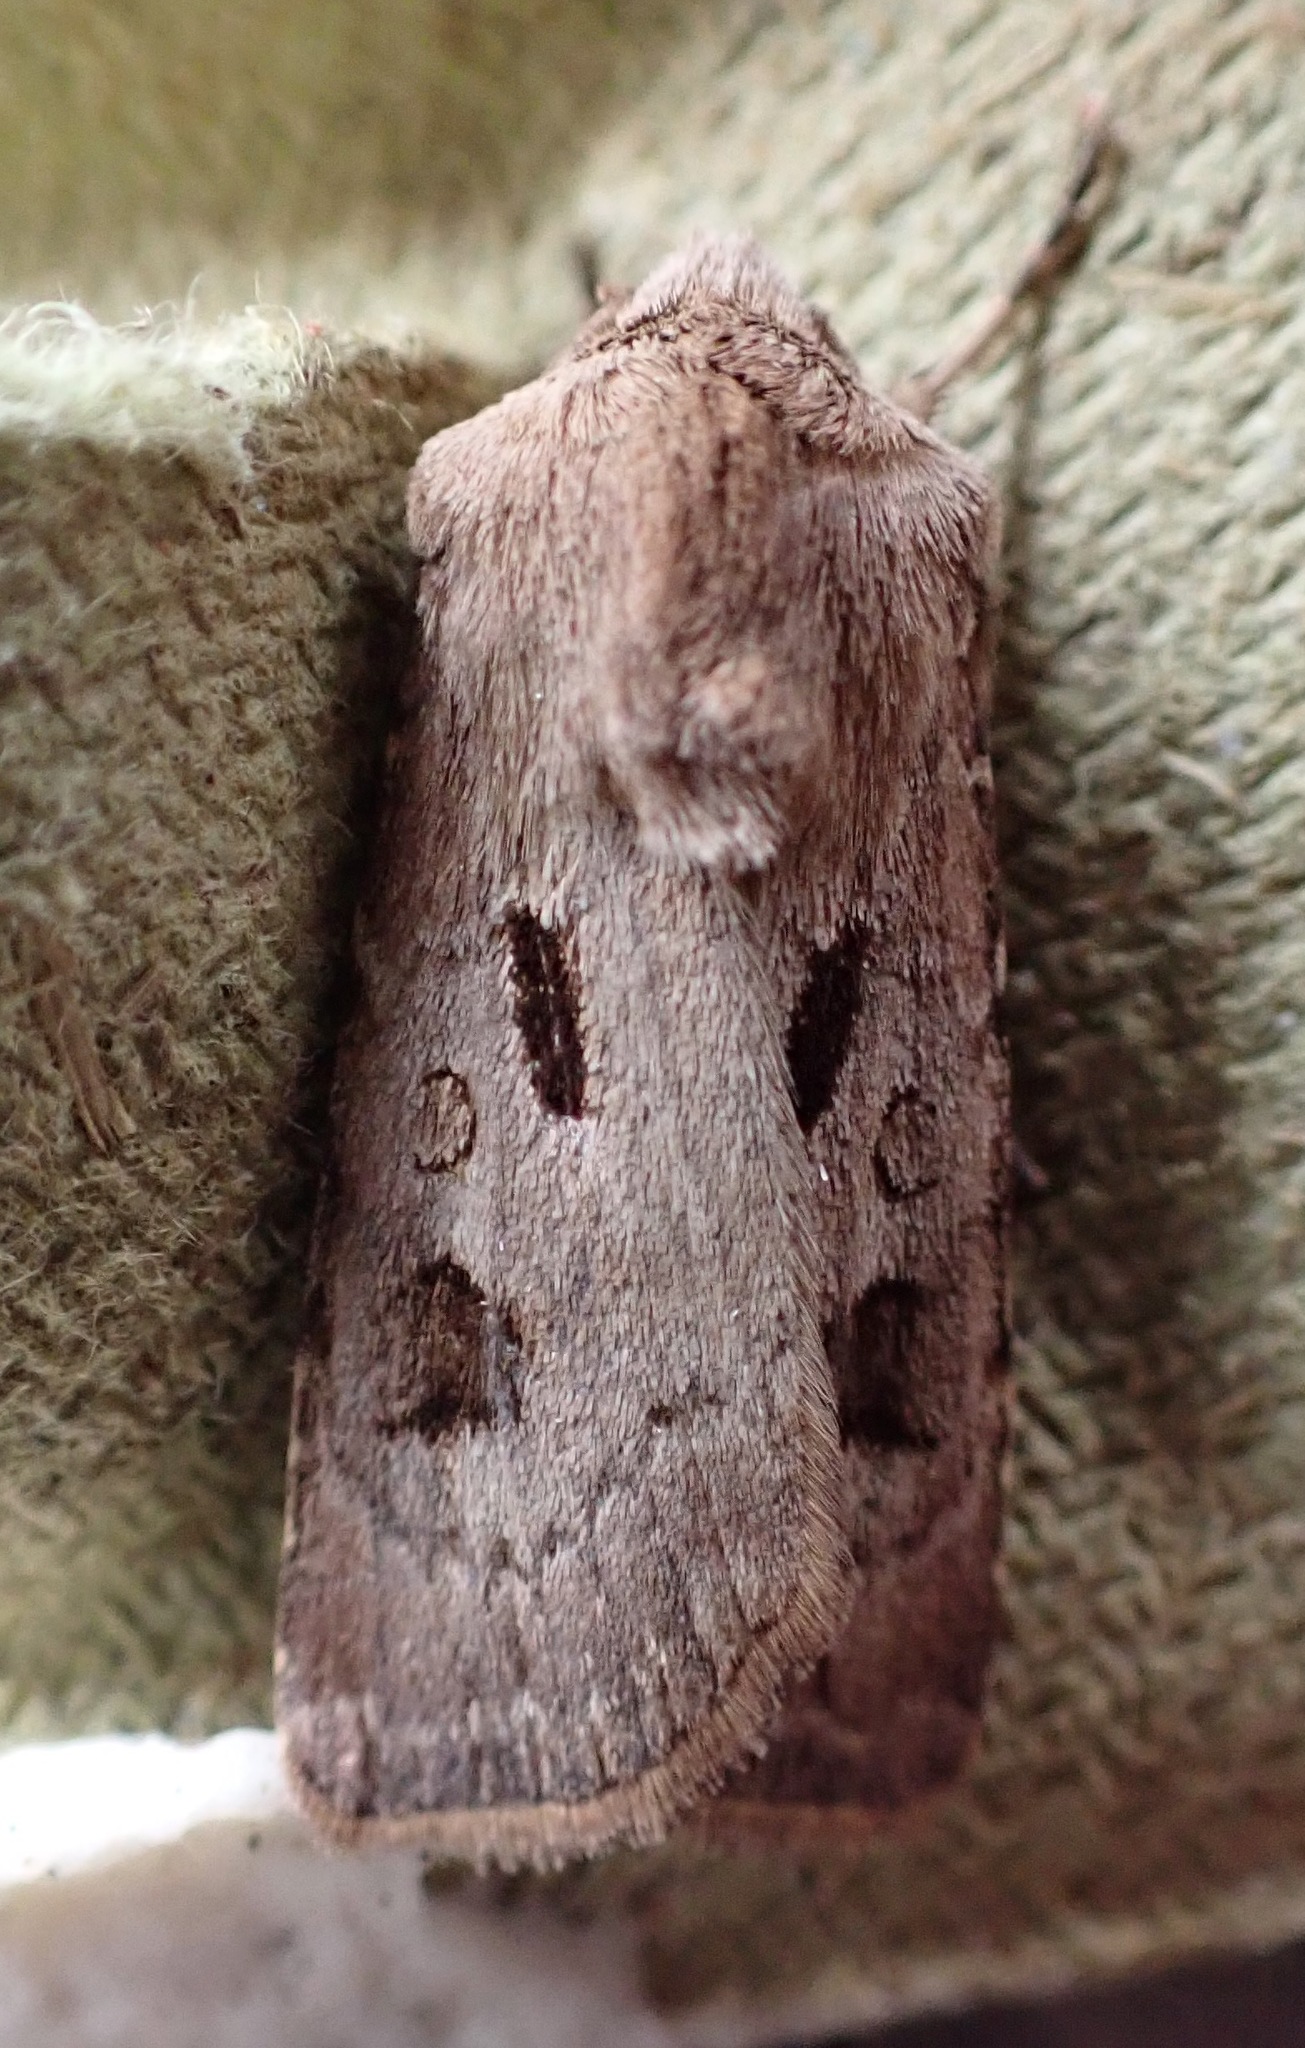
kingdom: Animalia
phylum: Arthropoda
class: Insecta
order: Lepidoptera
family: Noctuidae
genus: Agrotis
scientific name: Agrotis exclamationis
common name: Heart and dart
